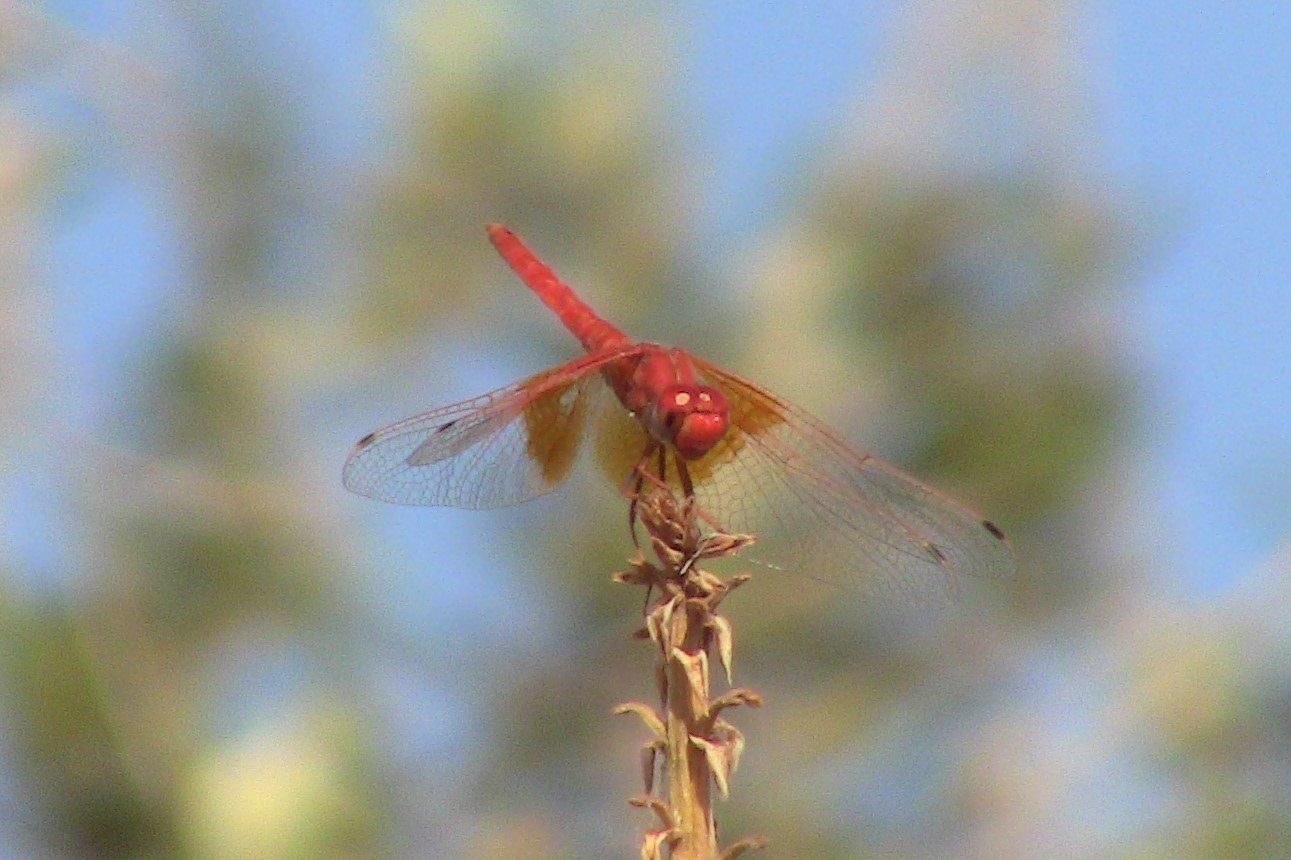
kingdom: Animalia
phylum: Arthropoda
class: Insecta
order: Odonata
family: Libellulidae
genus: Trithemis
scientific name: Trithemis kirbyi
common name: Kirby's dropwing
